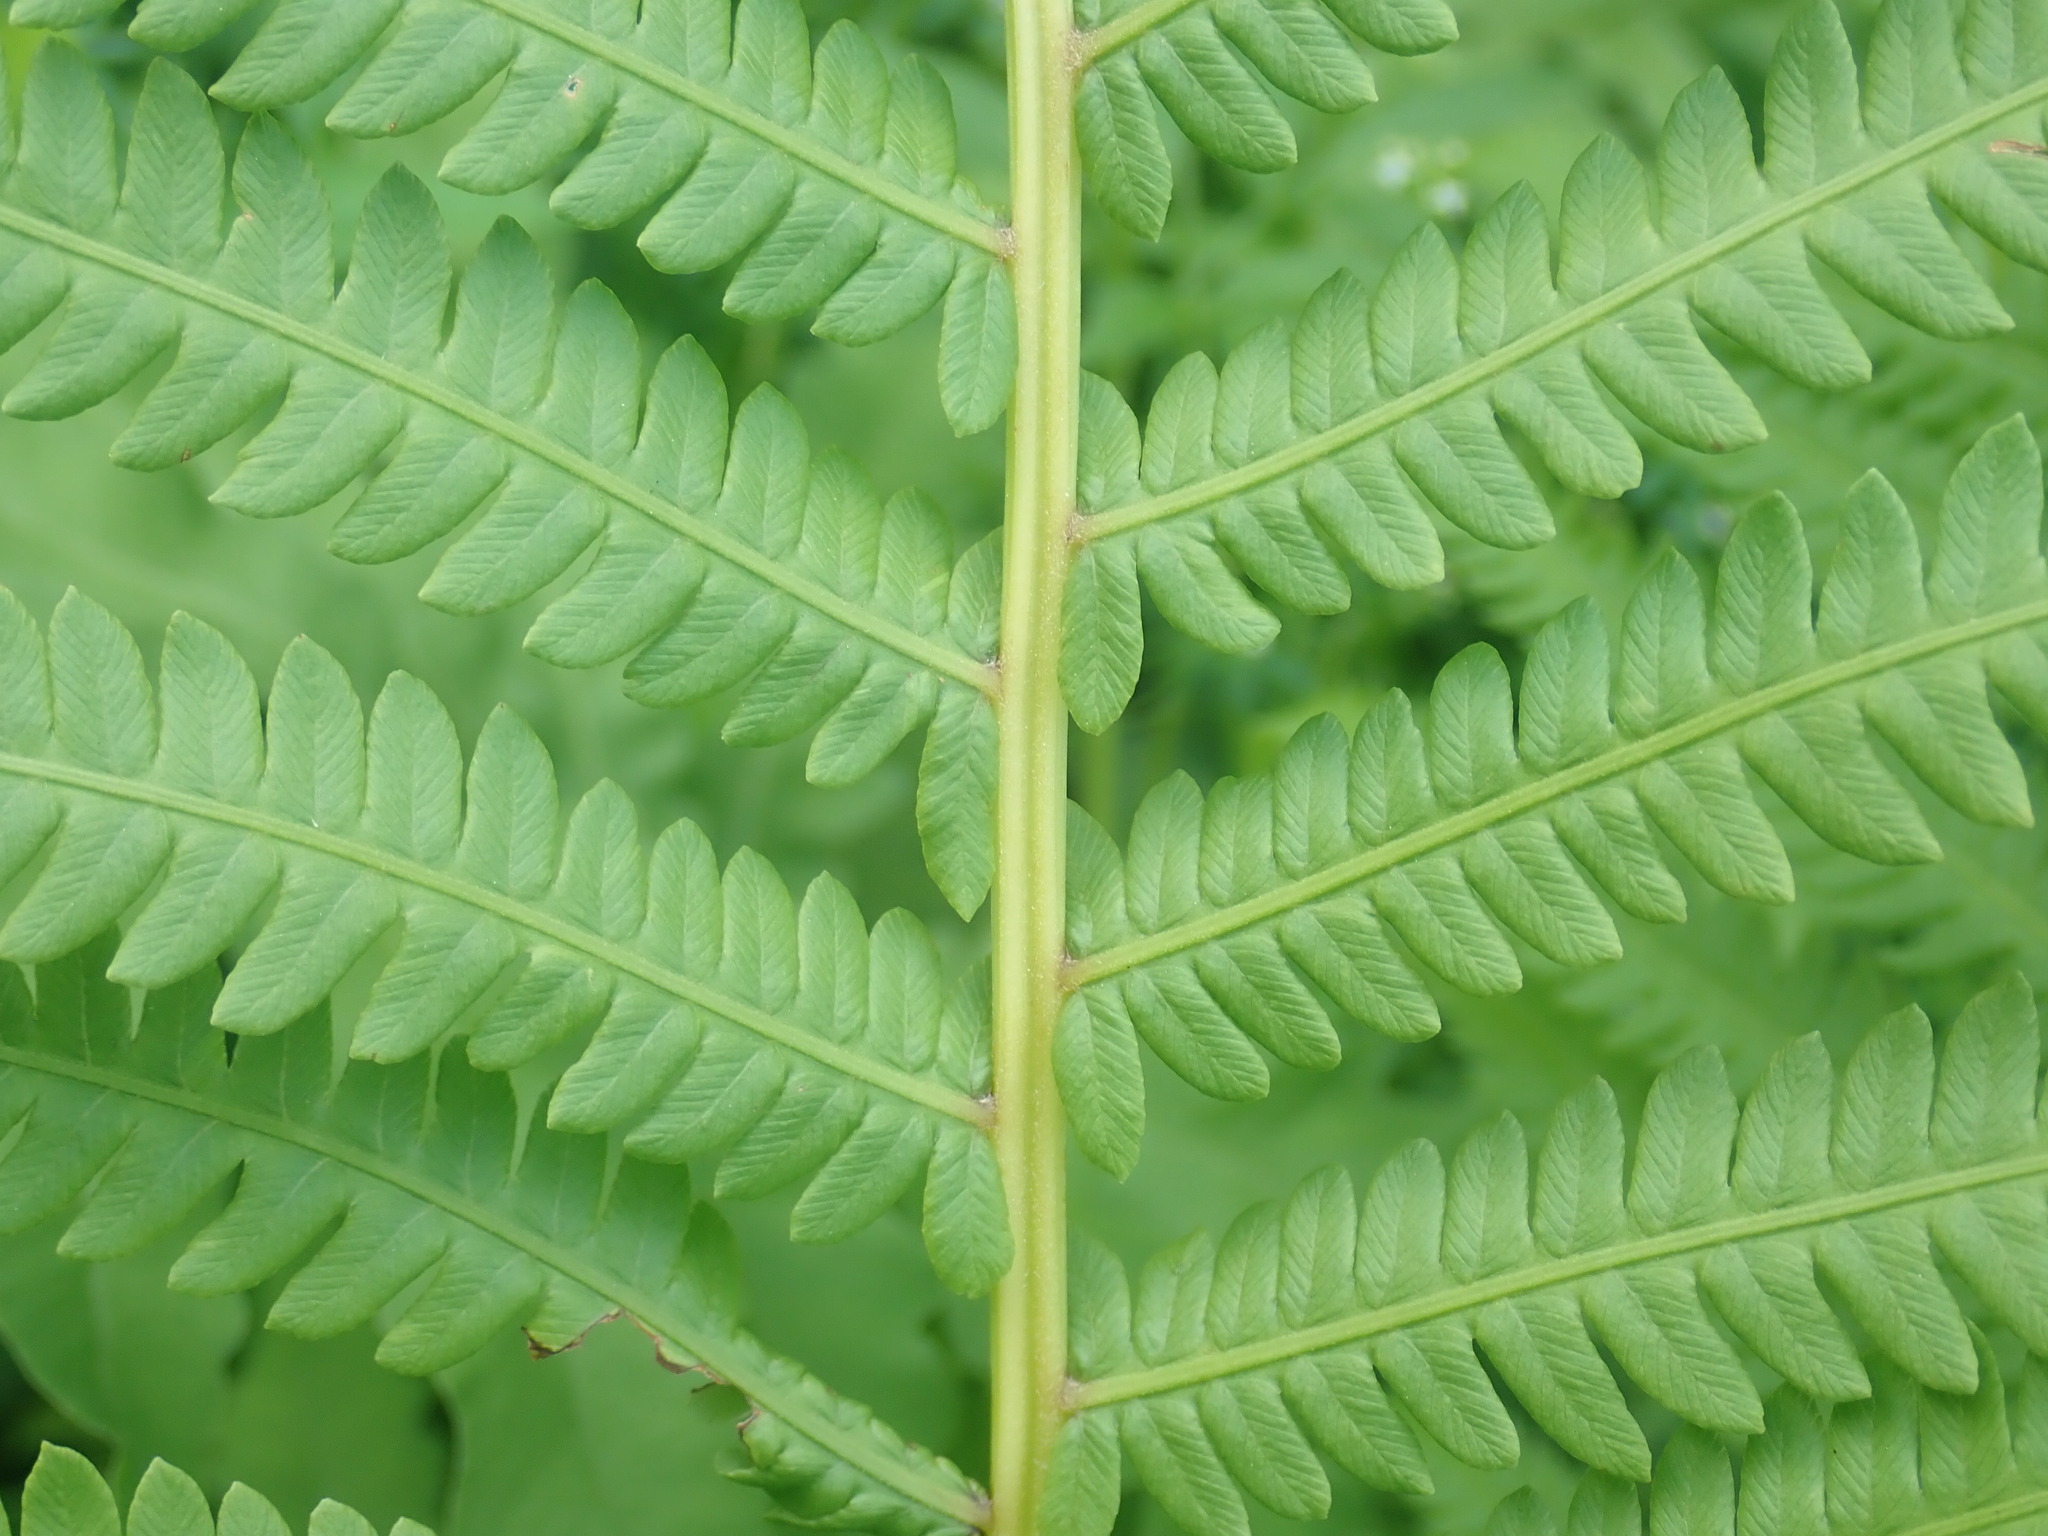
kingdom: Plantae
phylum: Tracheophyta
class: Polypodiopsida
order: Polypodiales
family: Onocleaceae
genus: Matteuccia
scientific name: Matteuccia struthiopteris
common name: Ostrich fern
